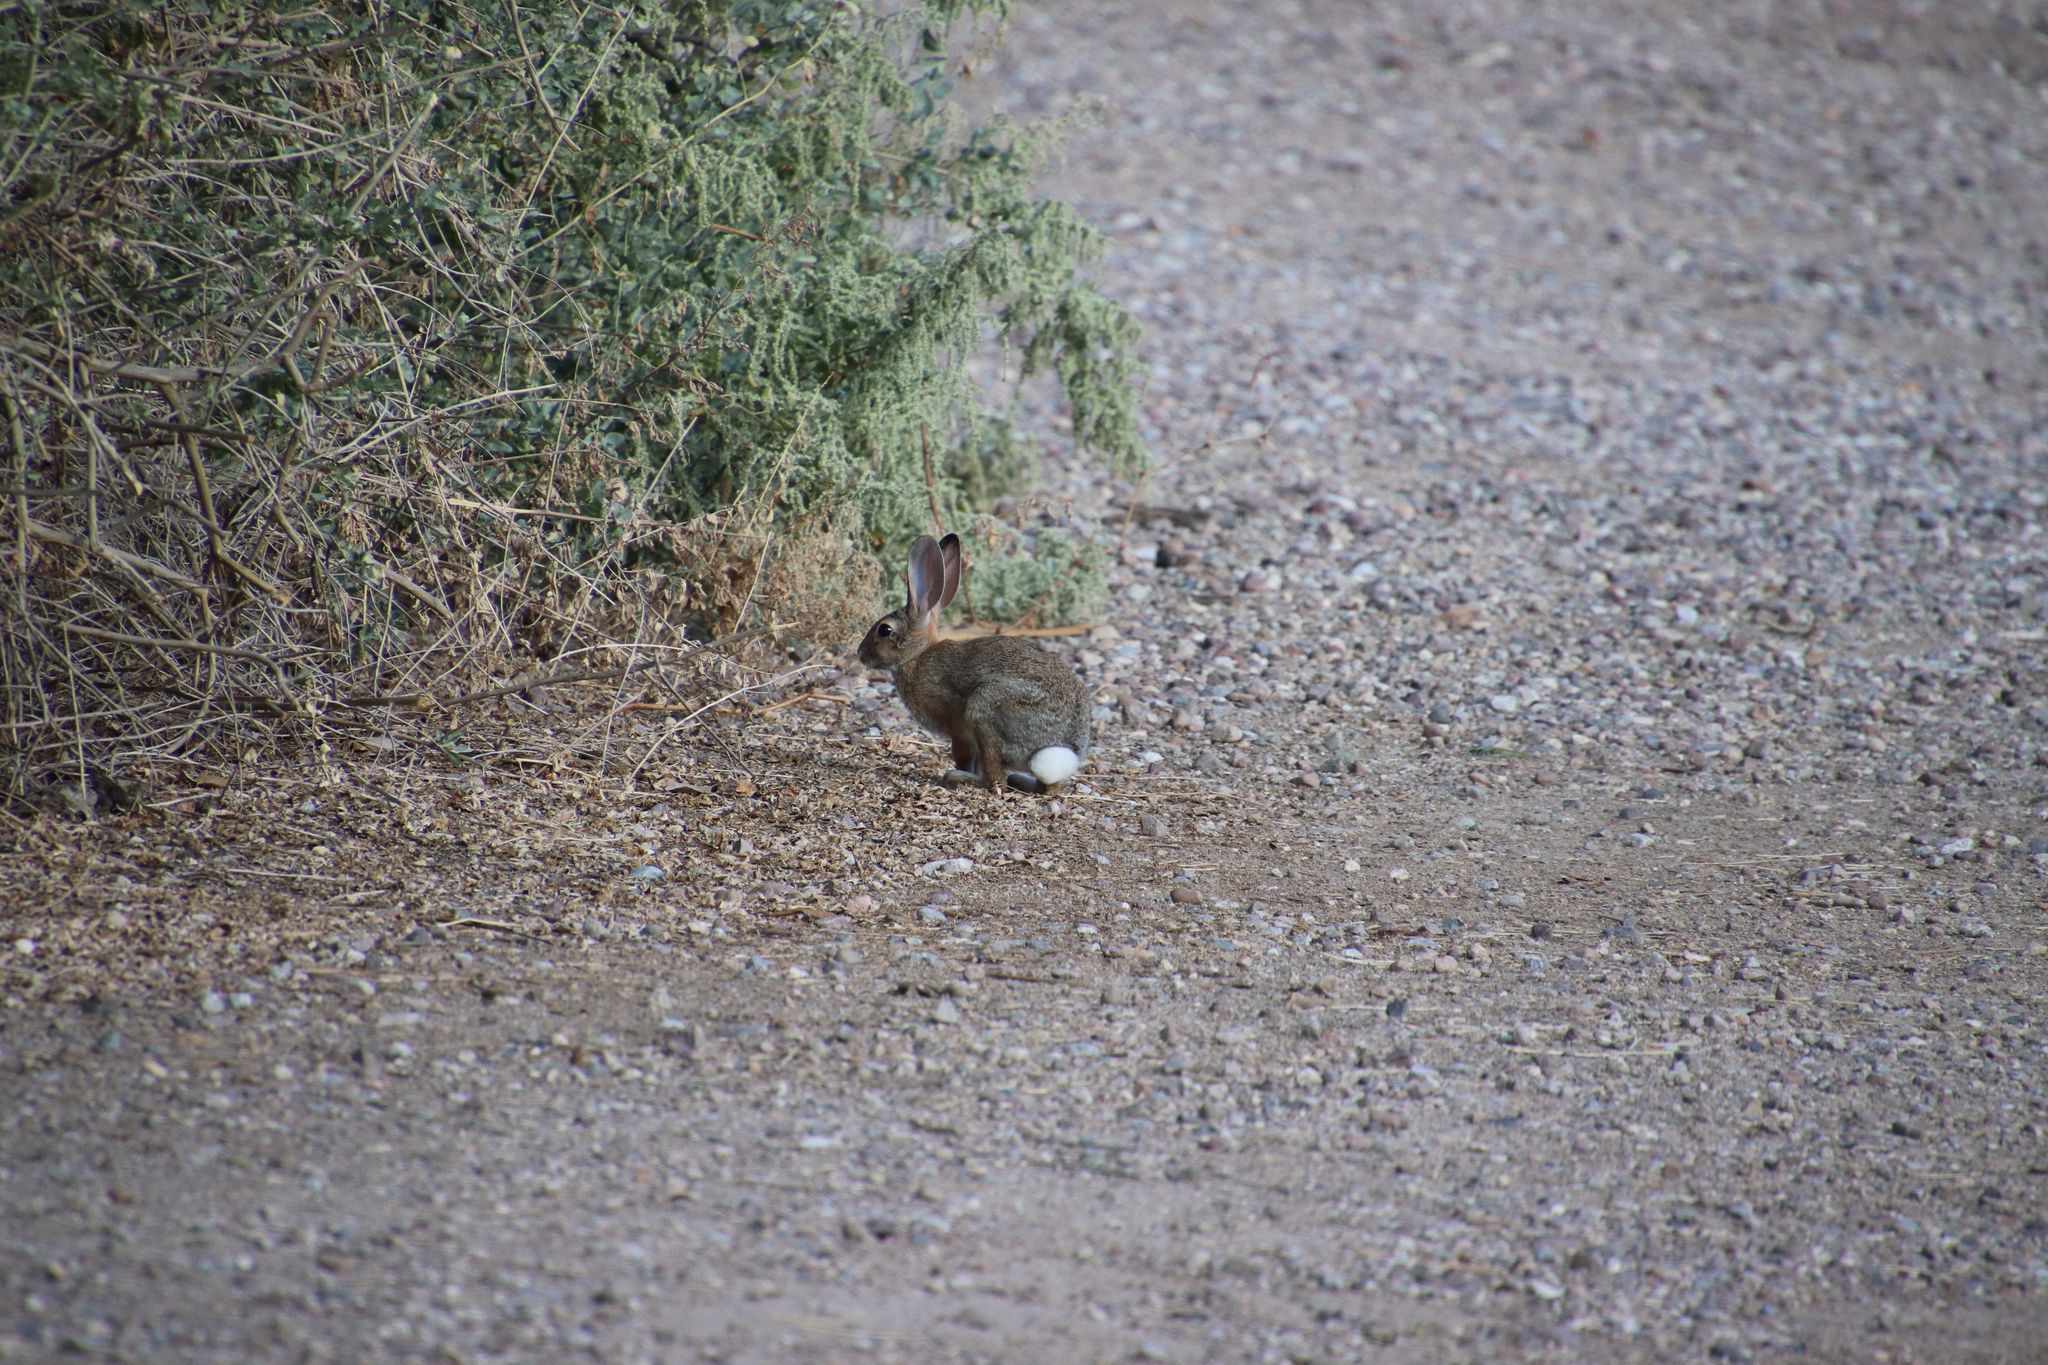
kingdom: Animalia
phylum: Chordata
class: Mammalia
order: Lagomorpha
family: Leporidae
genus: Sylvilagus
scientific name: Sylvilagus audubonii
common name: Desert cottontail
